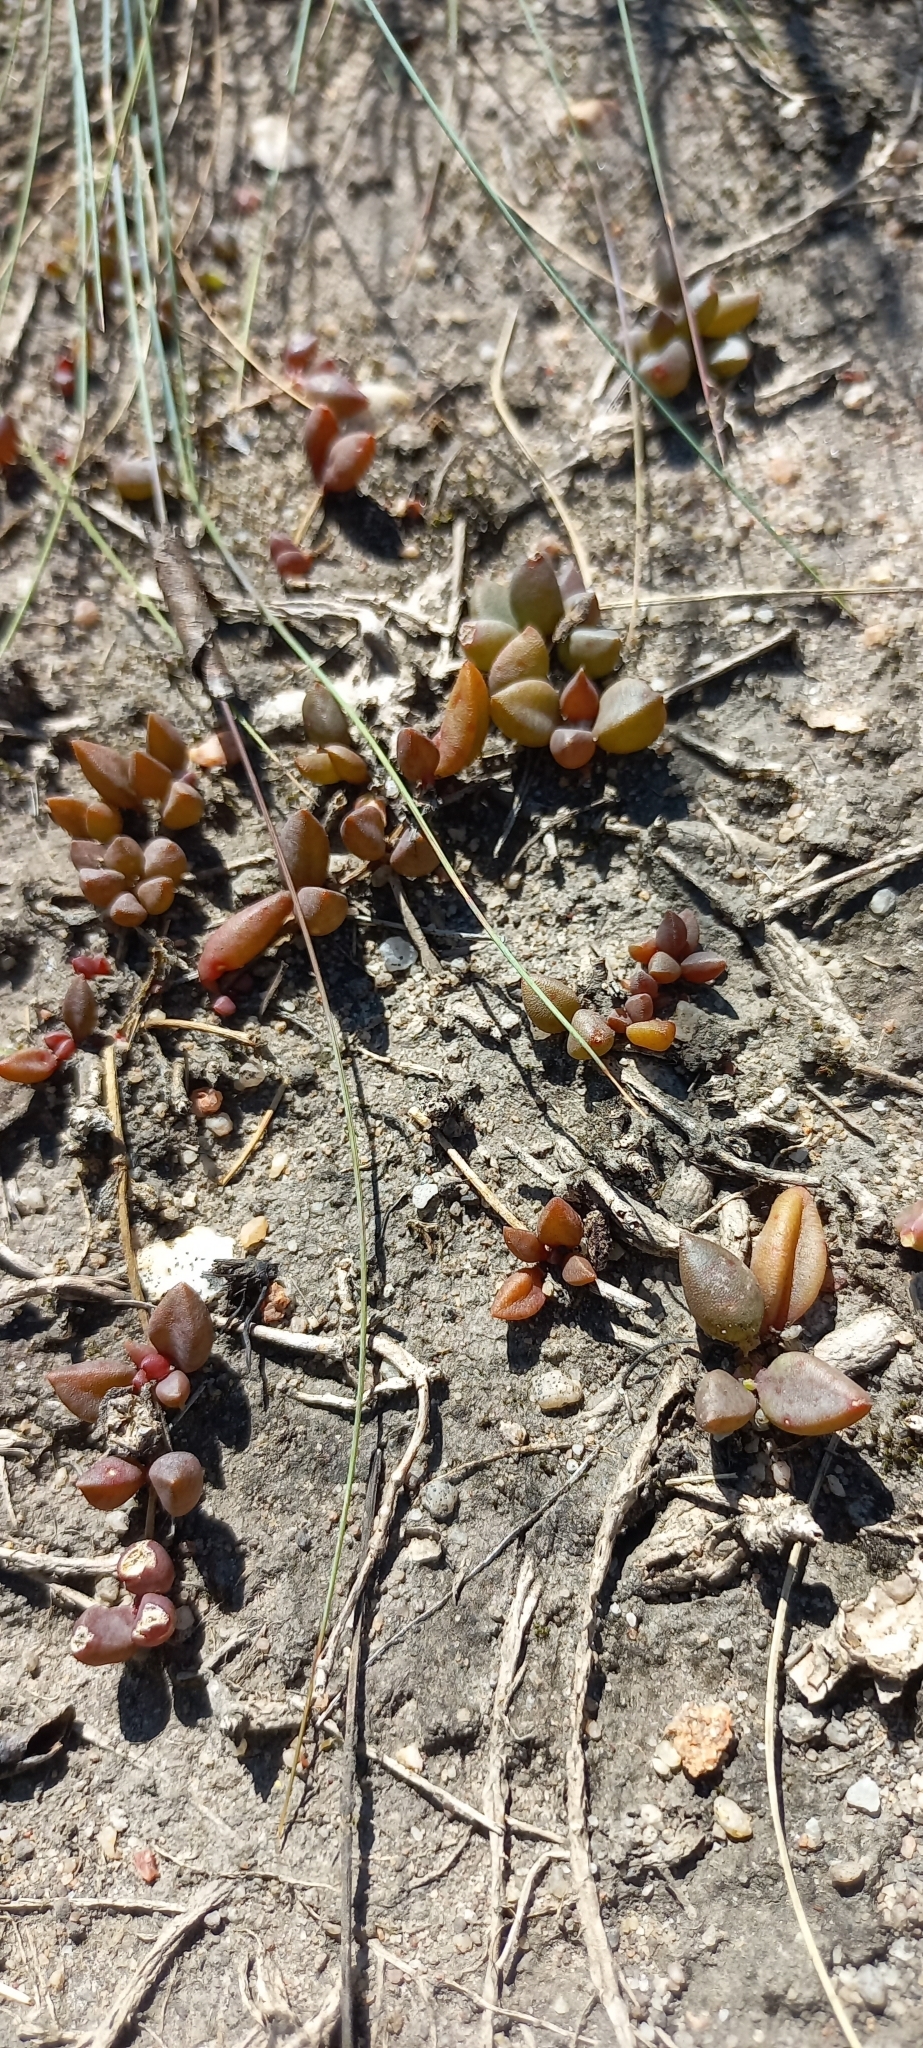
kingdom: Plantae
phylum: Tracheophyta
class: Magnoliopsida
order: Caryophyllales
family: Aizoaceae
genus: Delosperma
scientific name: Delosperma subpetiolatum
